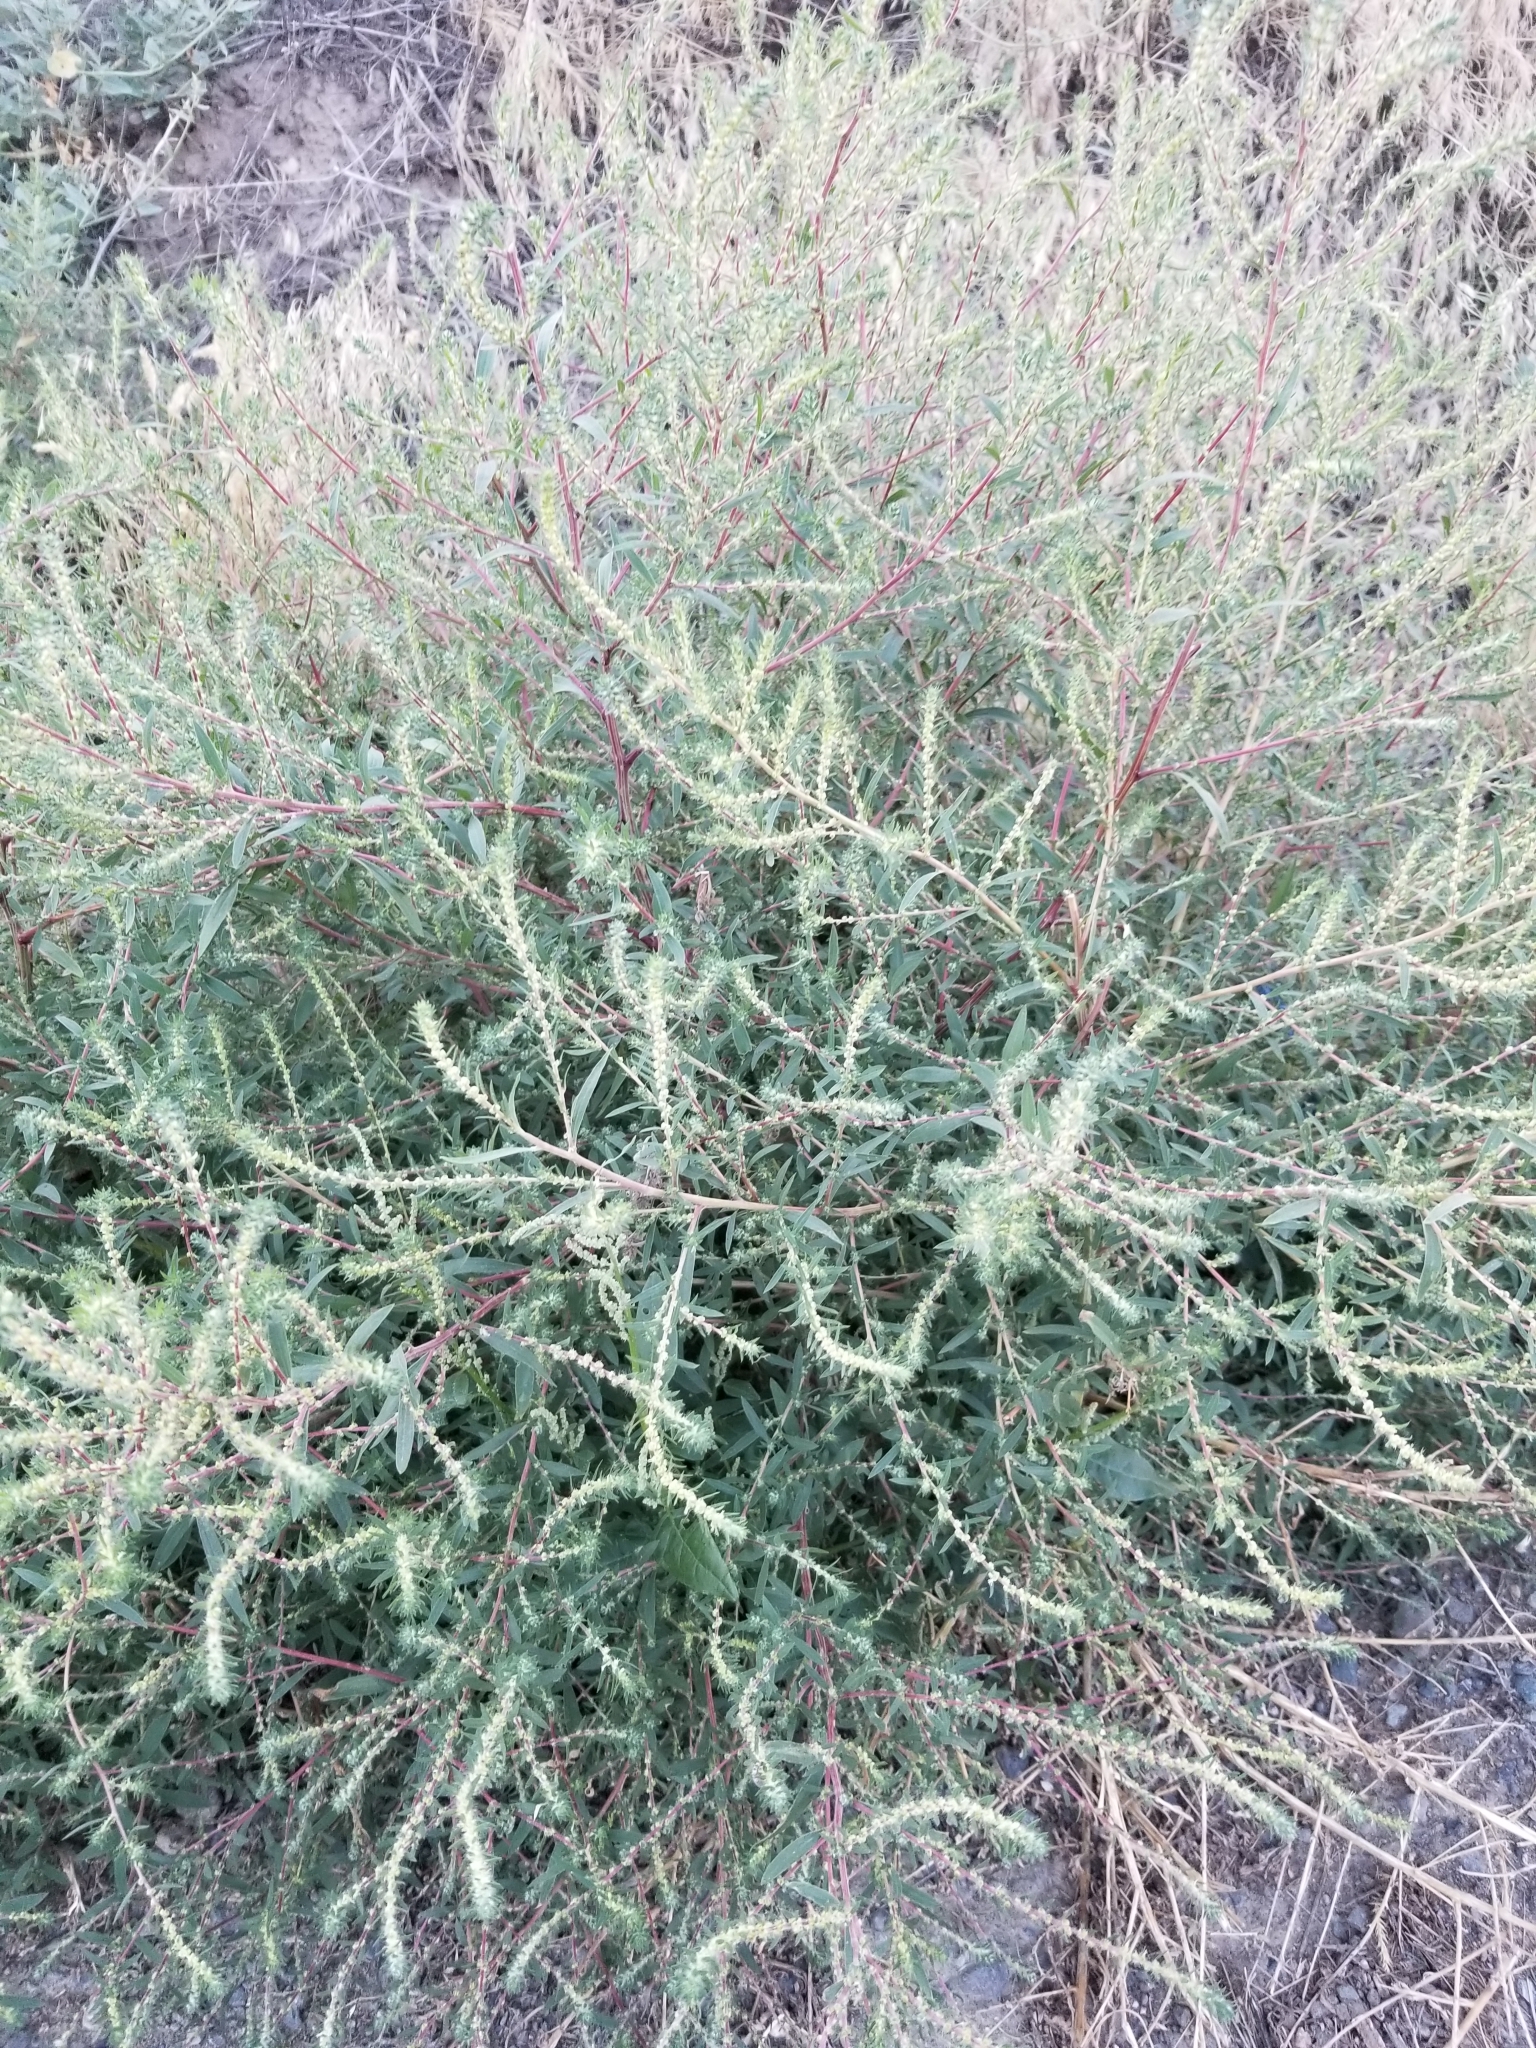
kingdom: Plantae
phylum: Tracheophyta
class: Magnoliopsida
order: Caryophyllales
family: Amaranthaceae
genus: Bassia
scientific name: Bassia scoparia
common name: Belvedere
